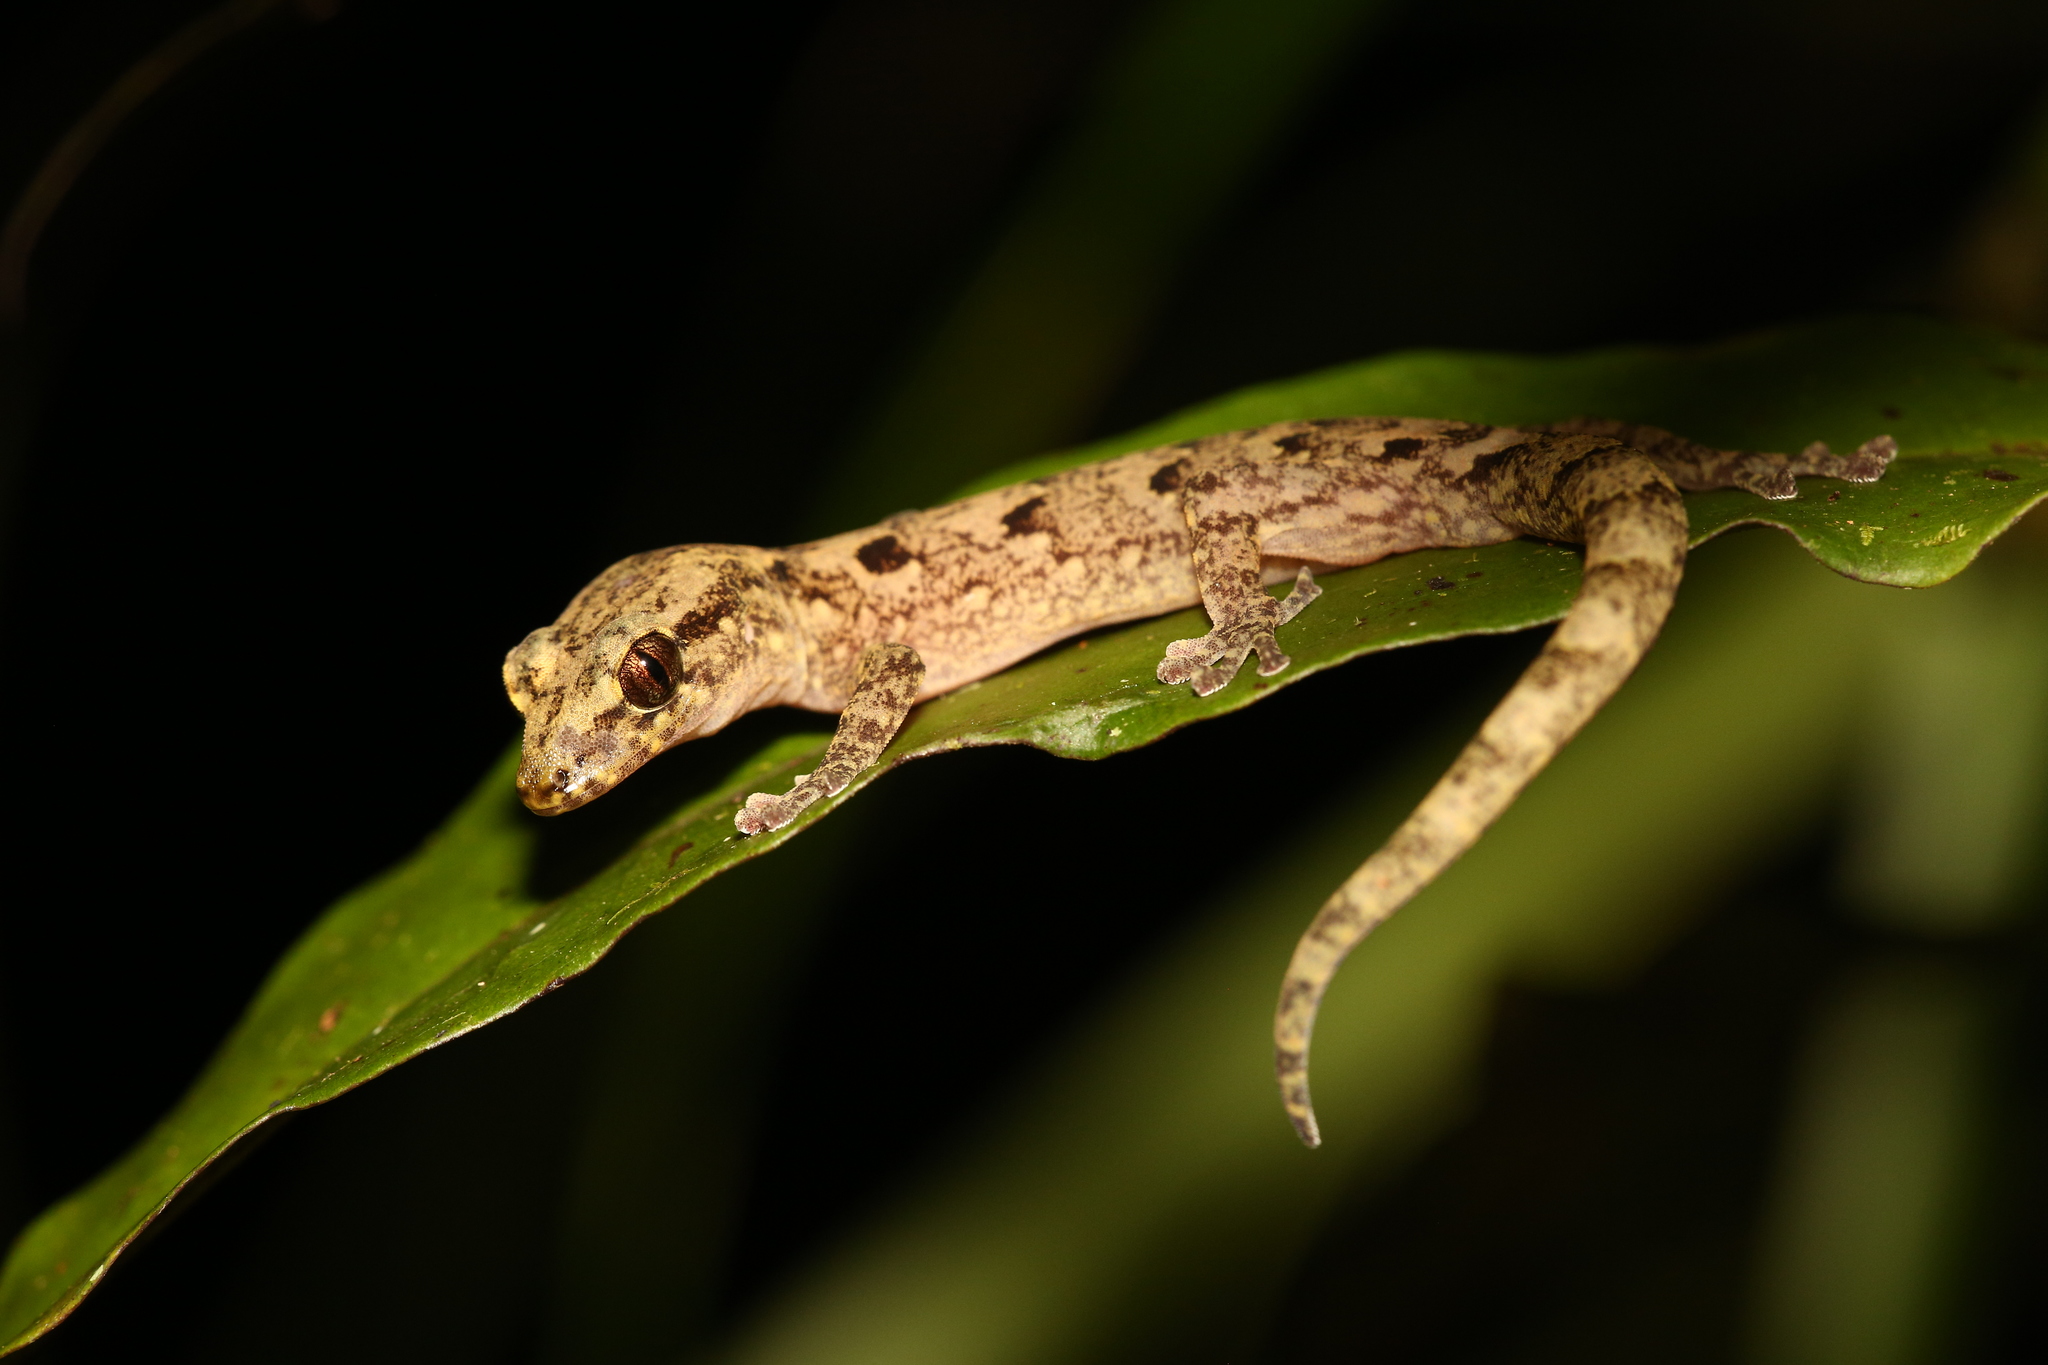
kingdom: Animalia
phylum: Chordata
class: Squamata
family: Diplodactylidae
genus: Bavayia
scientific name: Bavayia
